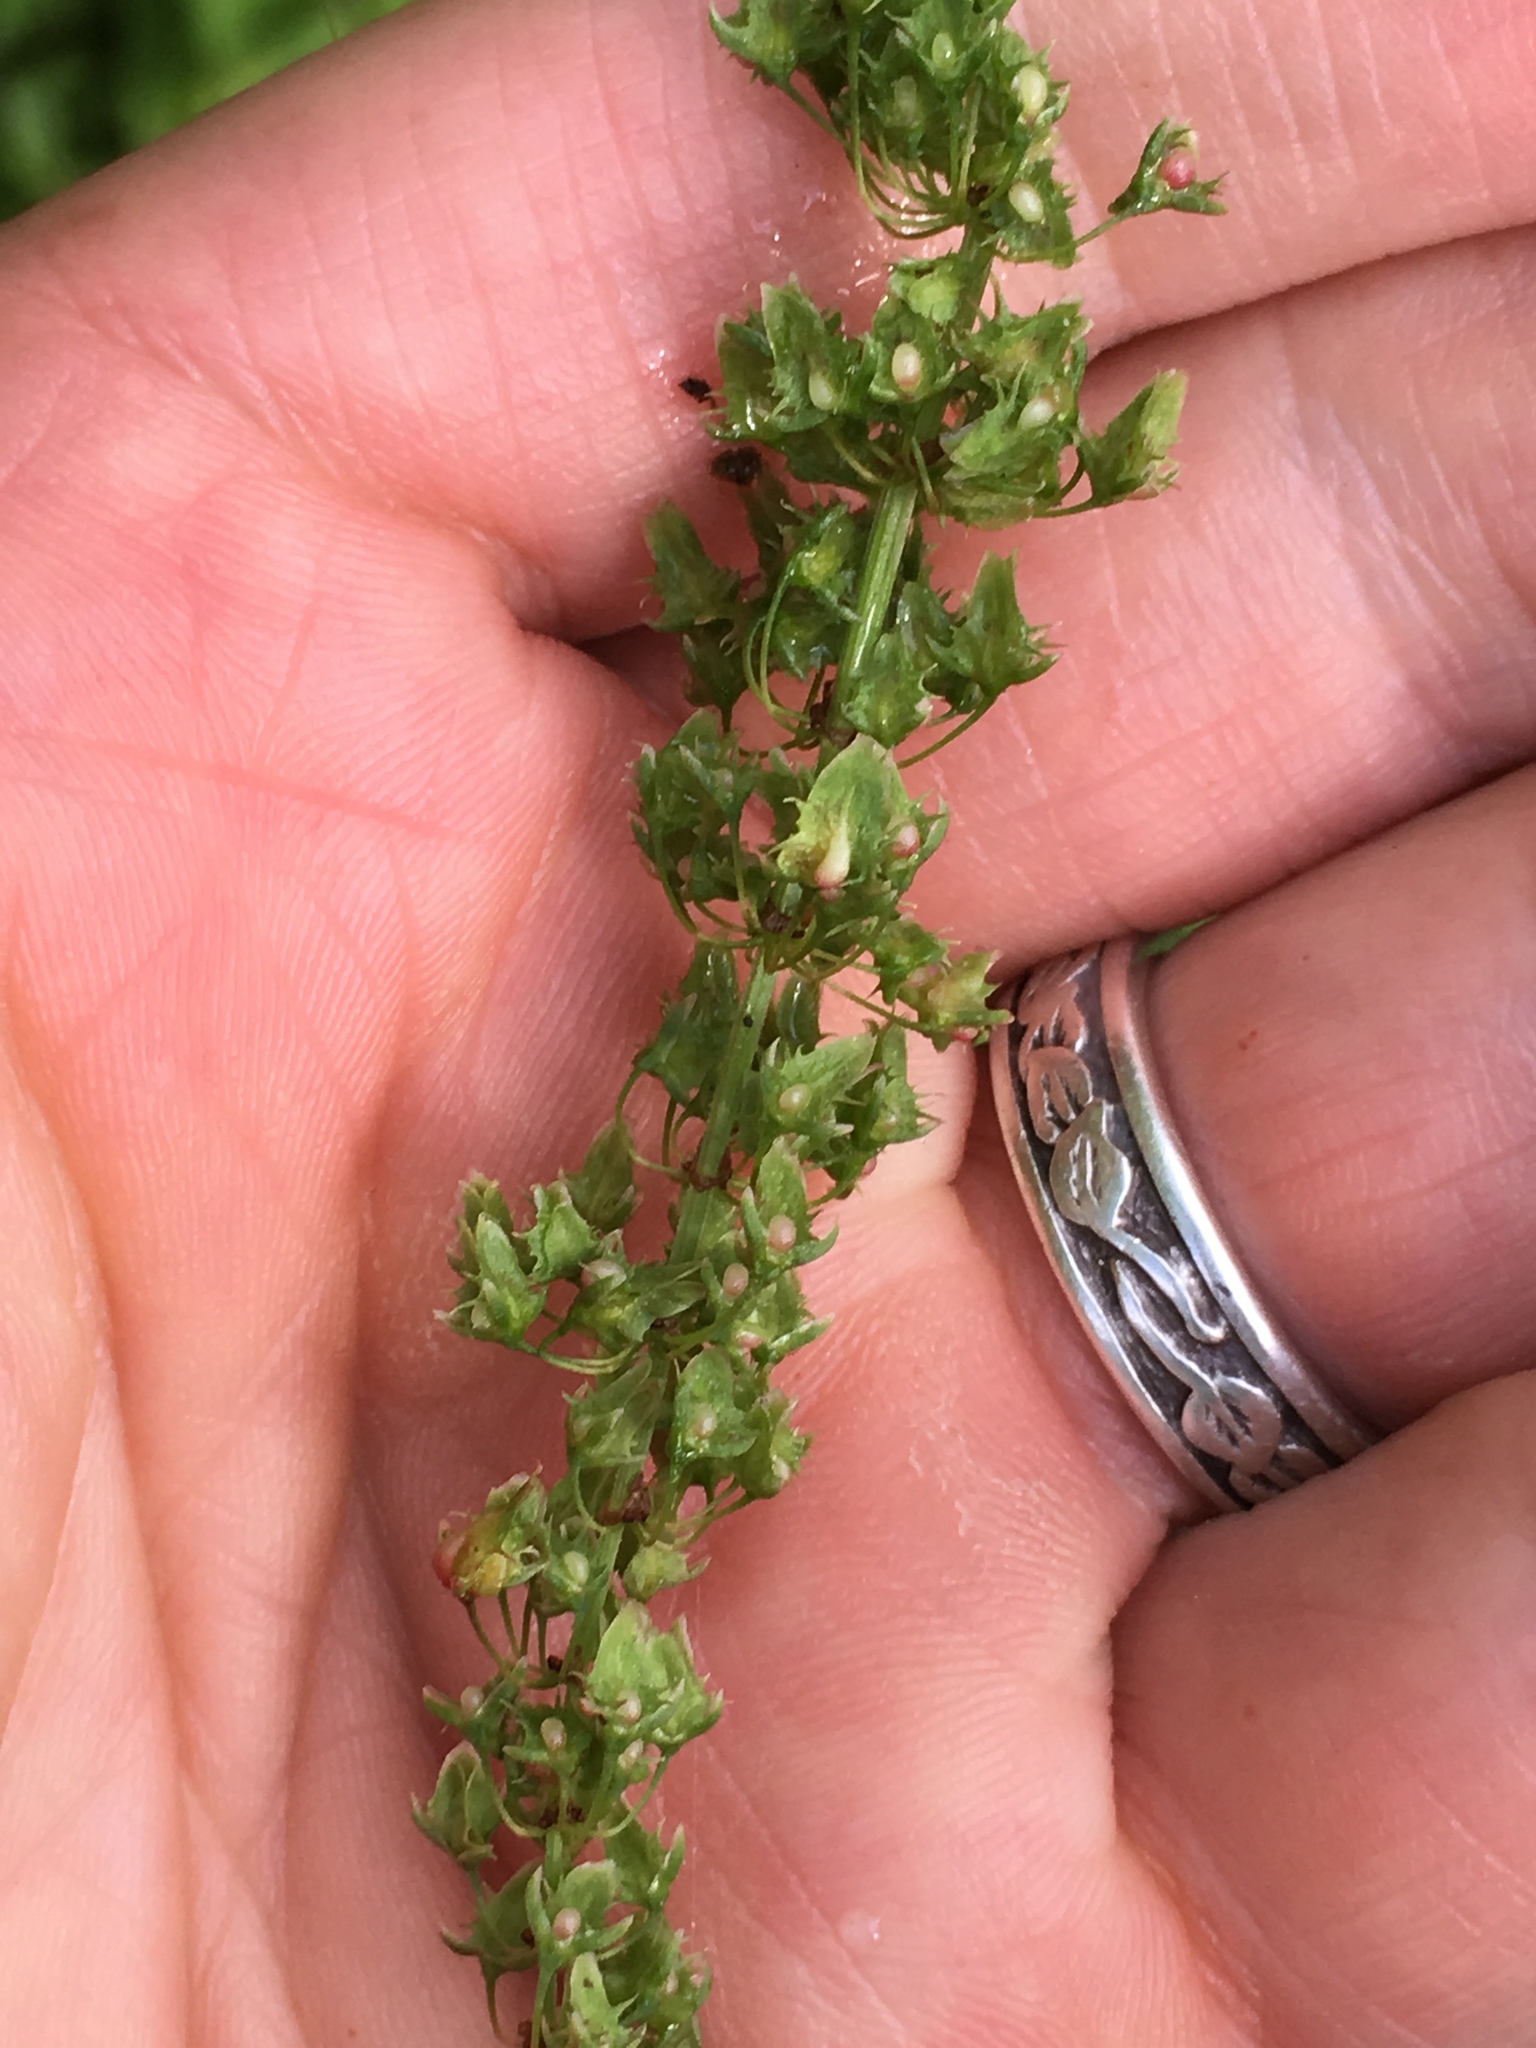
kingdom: Plantae
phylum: Tracheophyta
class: Magnoliopsida
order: Caryophyllales
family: Polygonaceae
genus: Rumex
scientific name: Rumex obtusifolius
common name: Bitter dock
